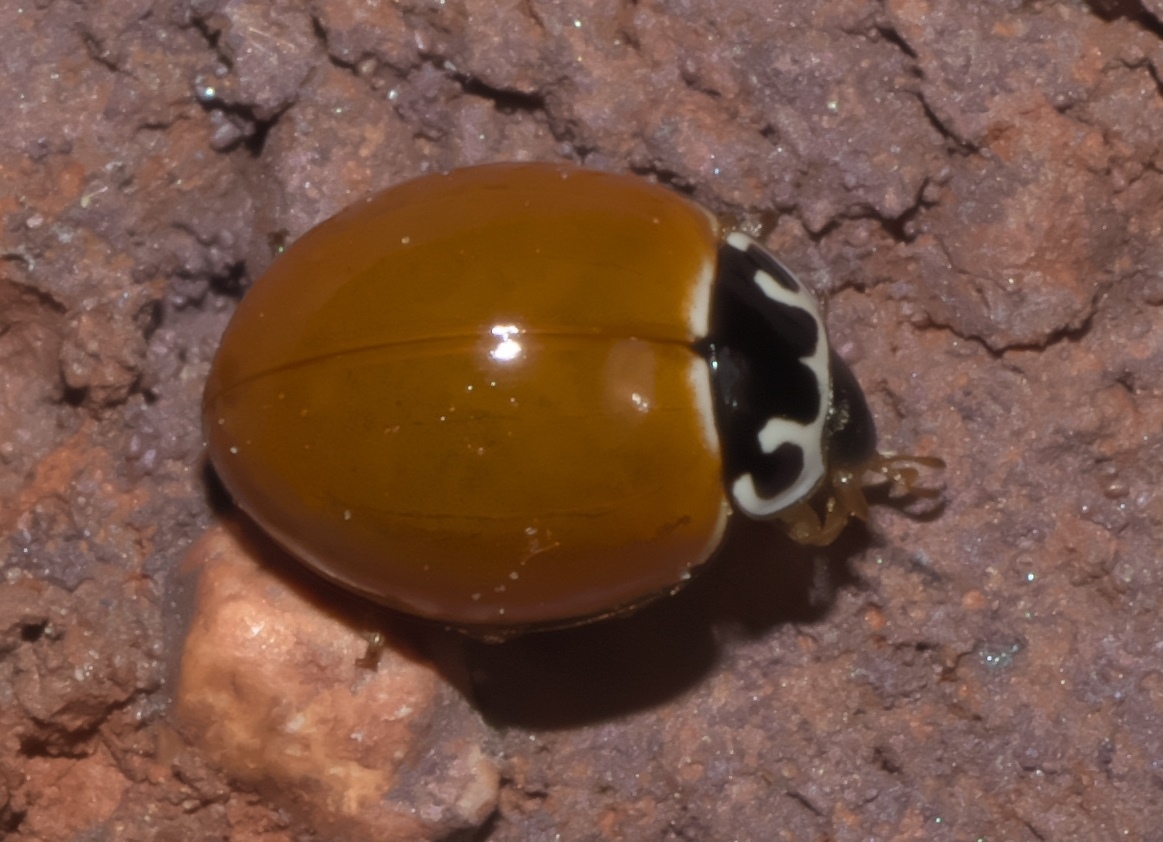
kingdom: Animalia
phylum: Arthropoda
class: Insecta
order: Coleoptera
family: Coccinellidae
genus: Cycloneda
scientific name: Cycloneda munda
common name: Polished lady beetle
